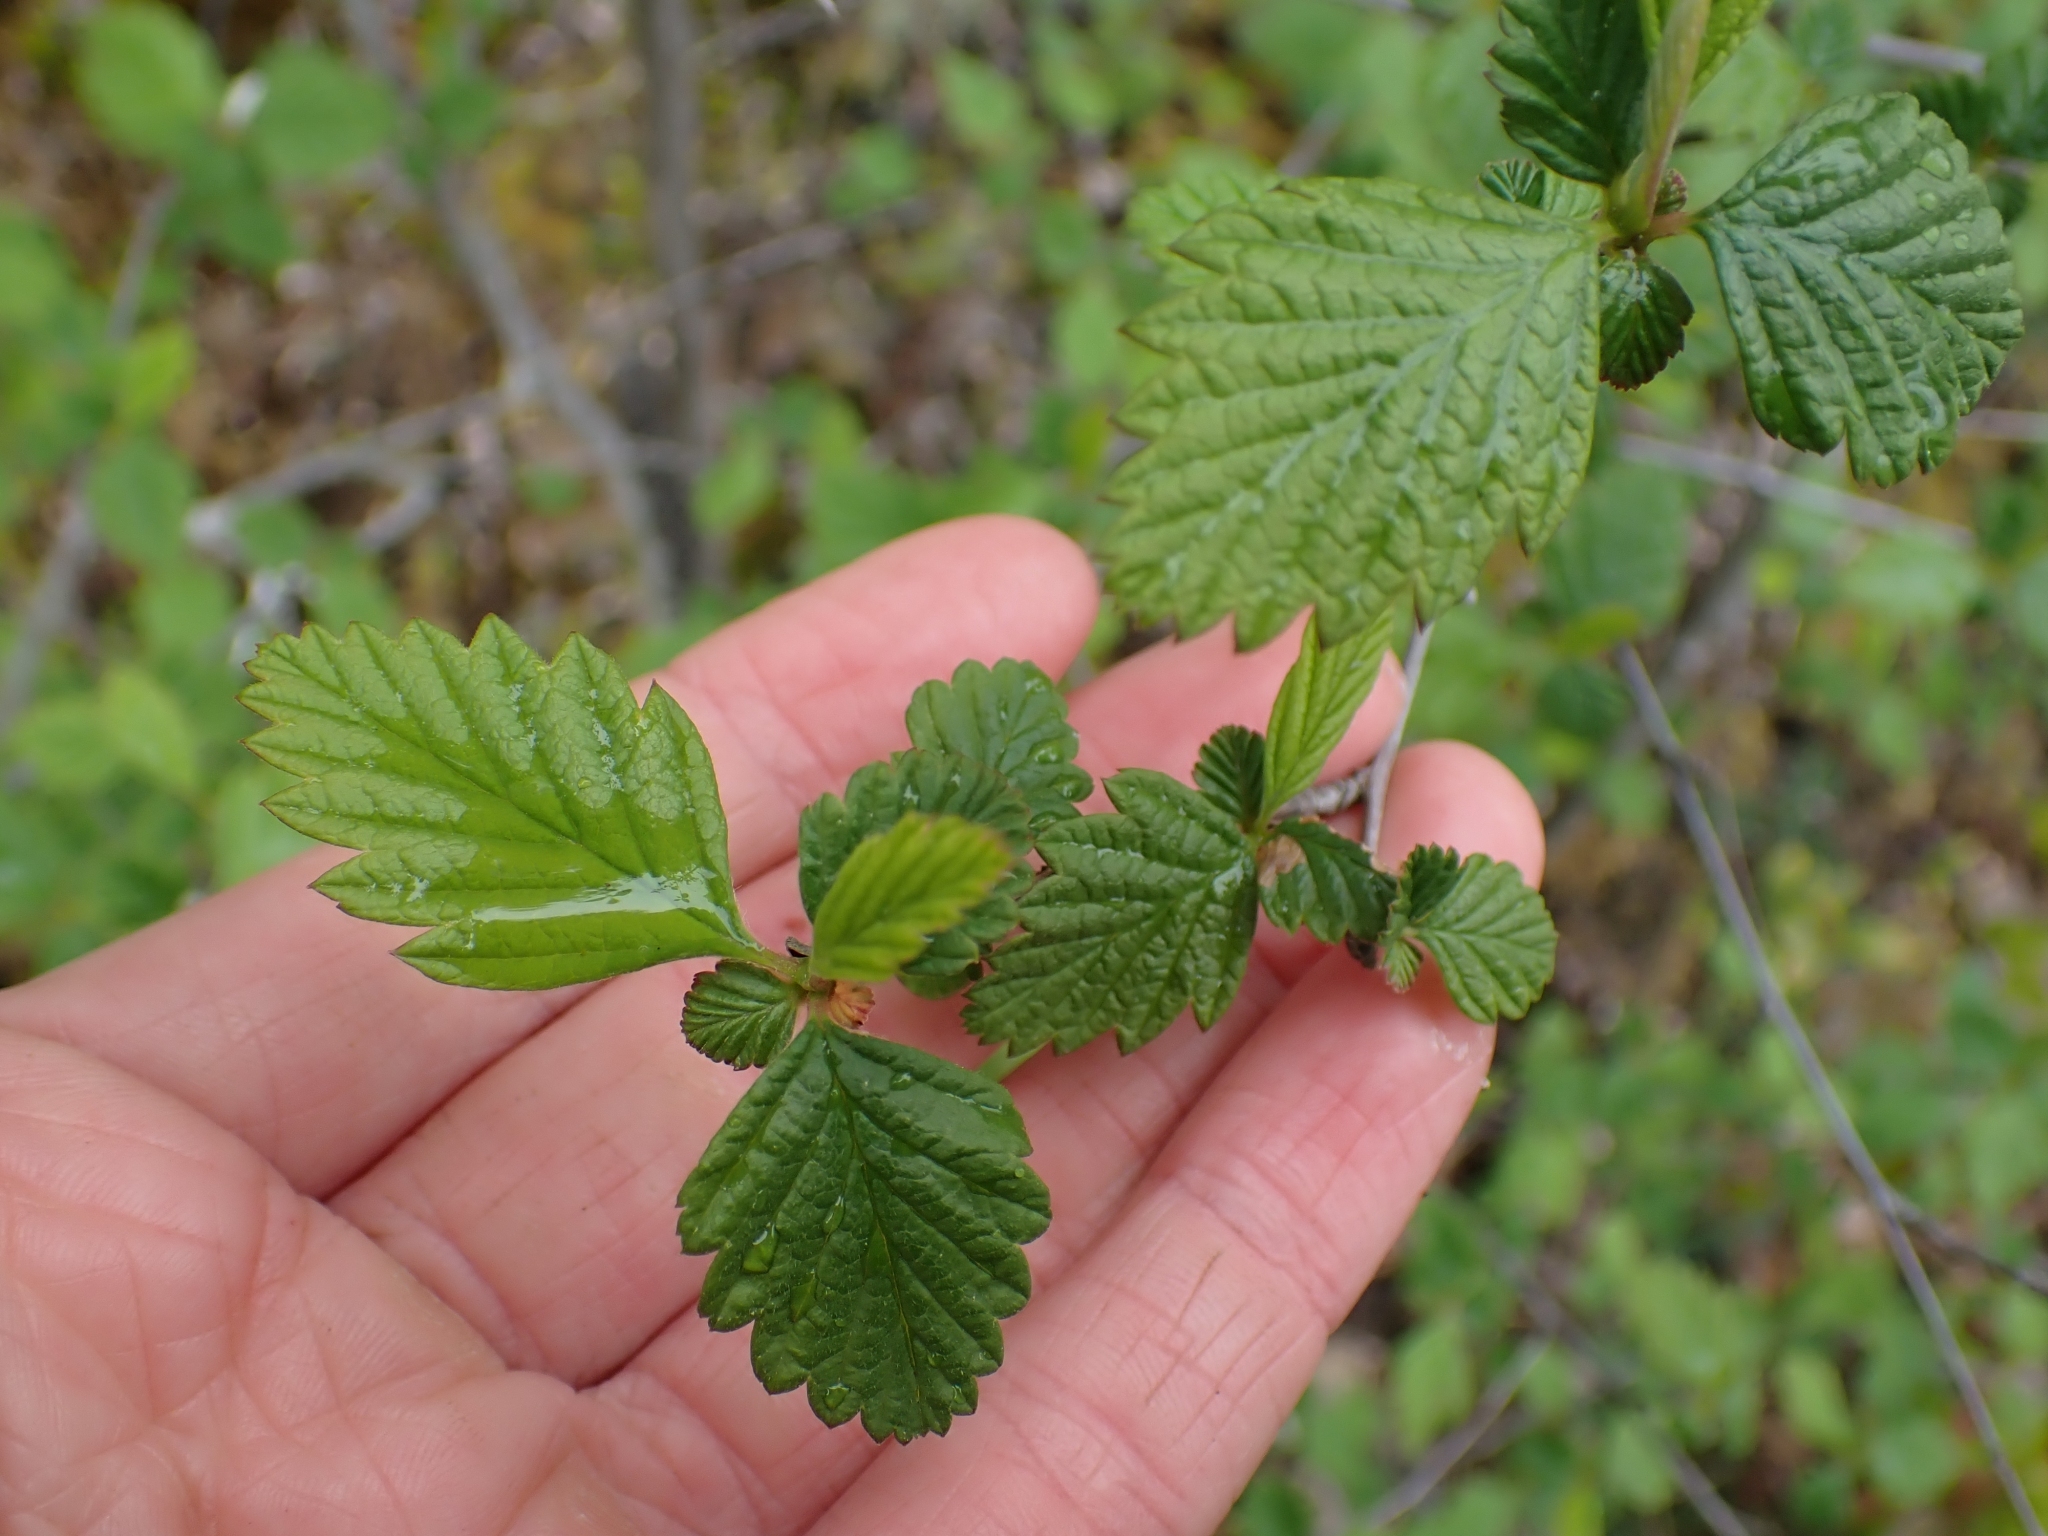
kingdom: Plantae
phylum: Tracheophyta
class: Magnoliopsida
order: Rosales
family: Rosaceae
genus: Holodiscus
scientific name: Holodiscus discolor
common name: Oceanspray
